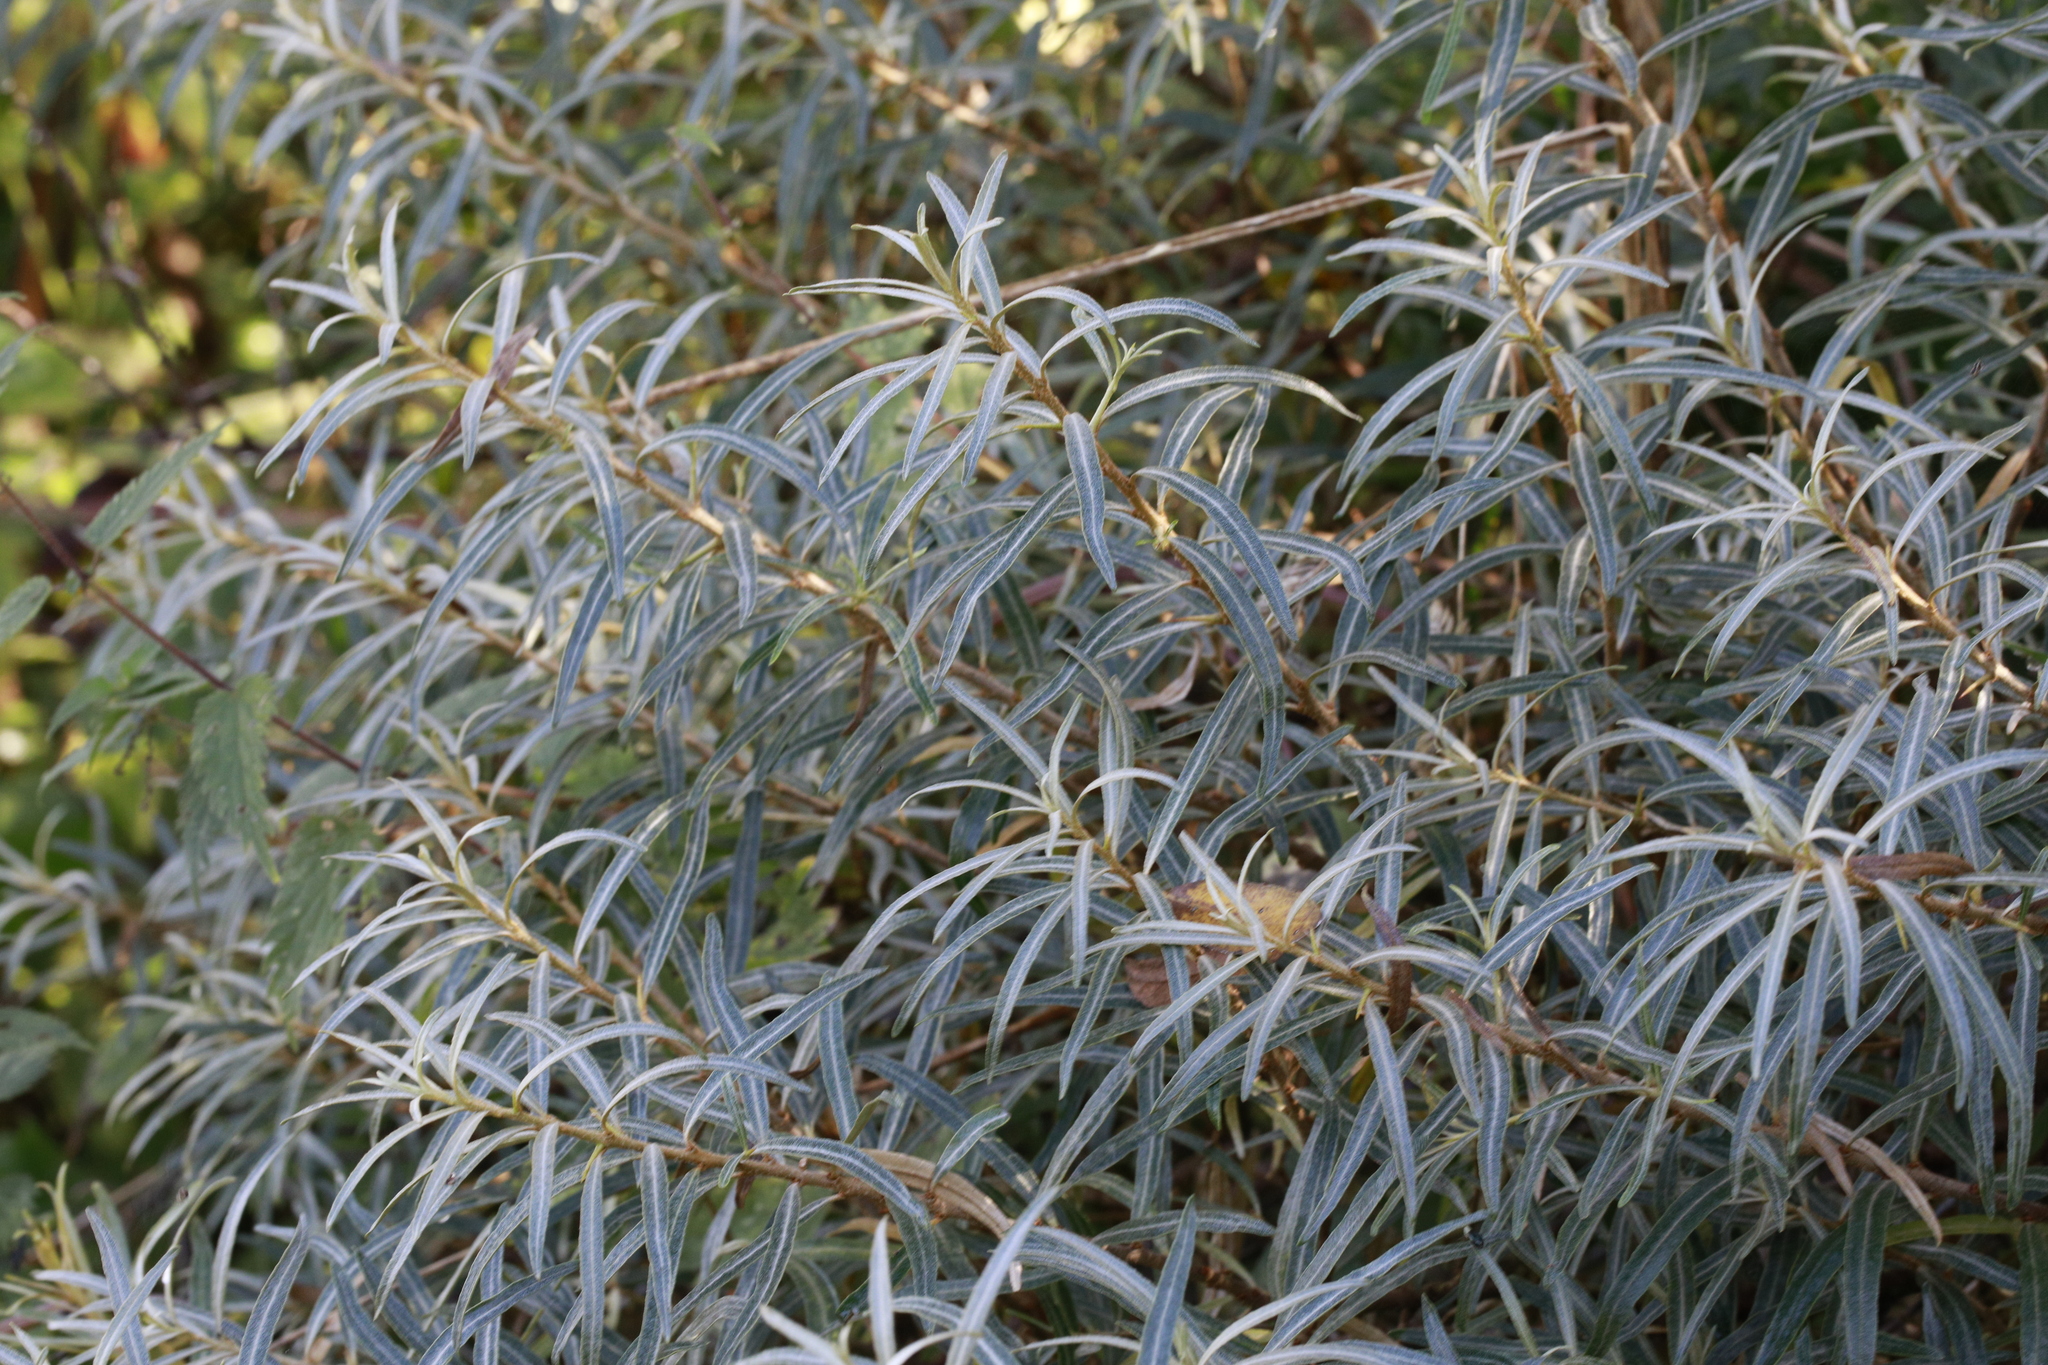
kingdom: Plantae
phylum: Tracheophyta
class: Magnoliopsida
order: Rosales
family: Elaeagnaceae
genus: Hippophae
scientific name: Hippophae rhamnoides
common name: Sea-buckthorn
